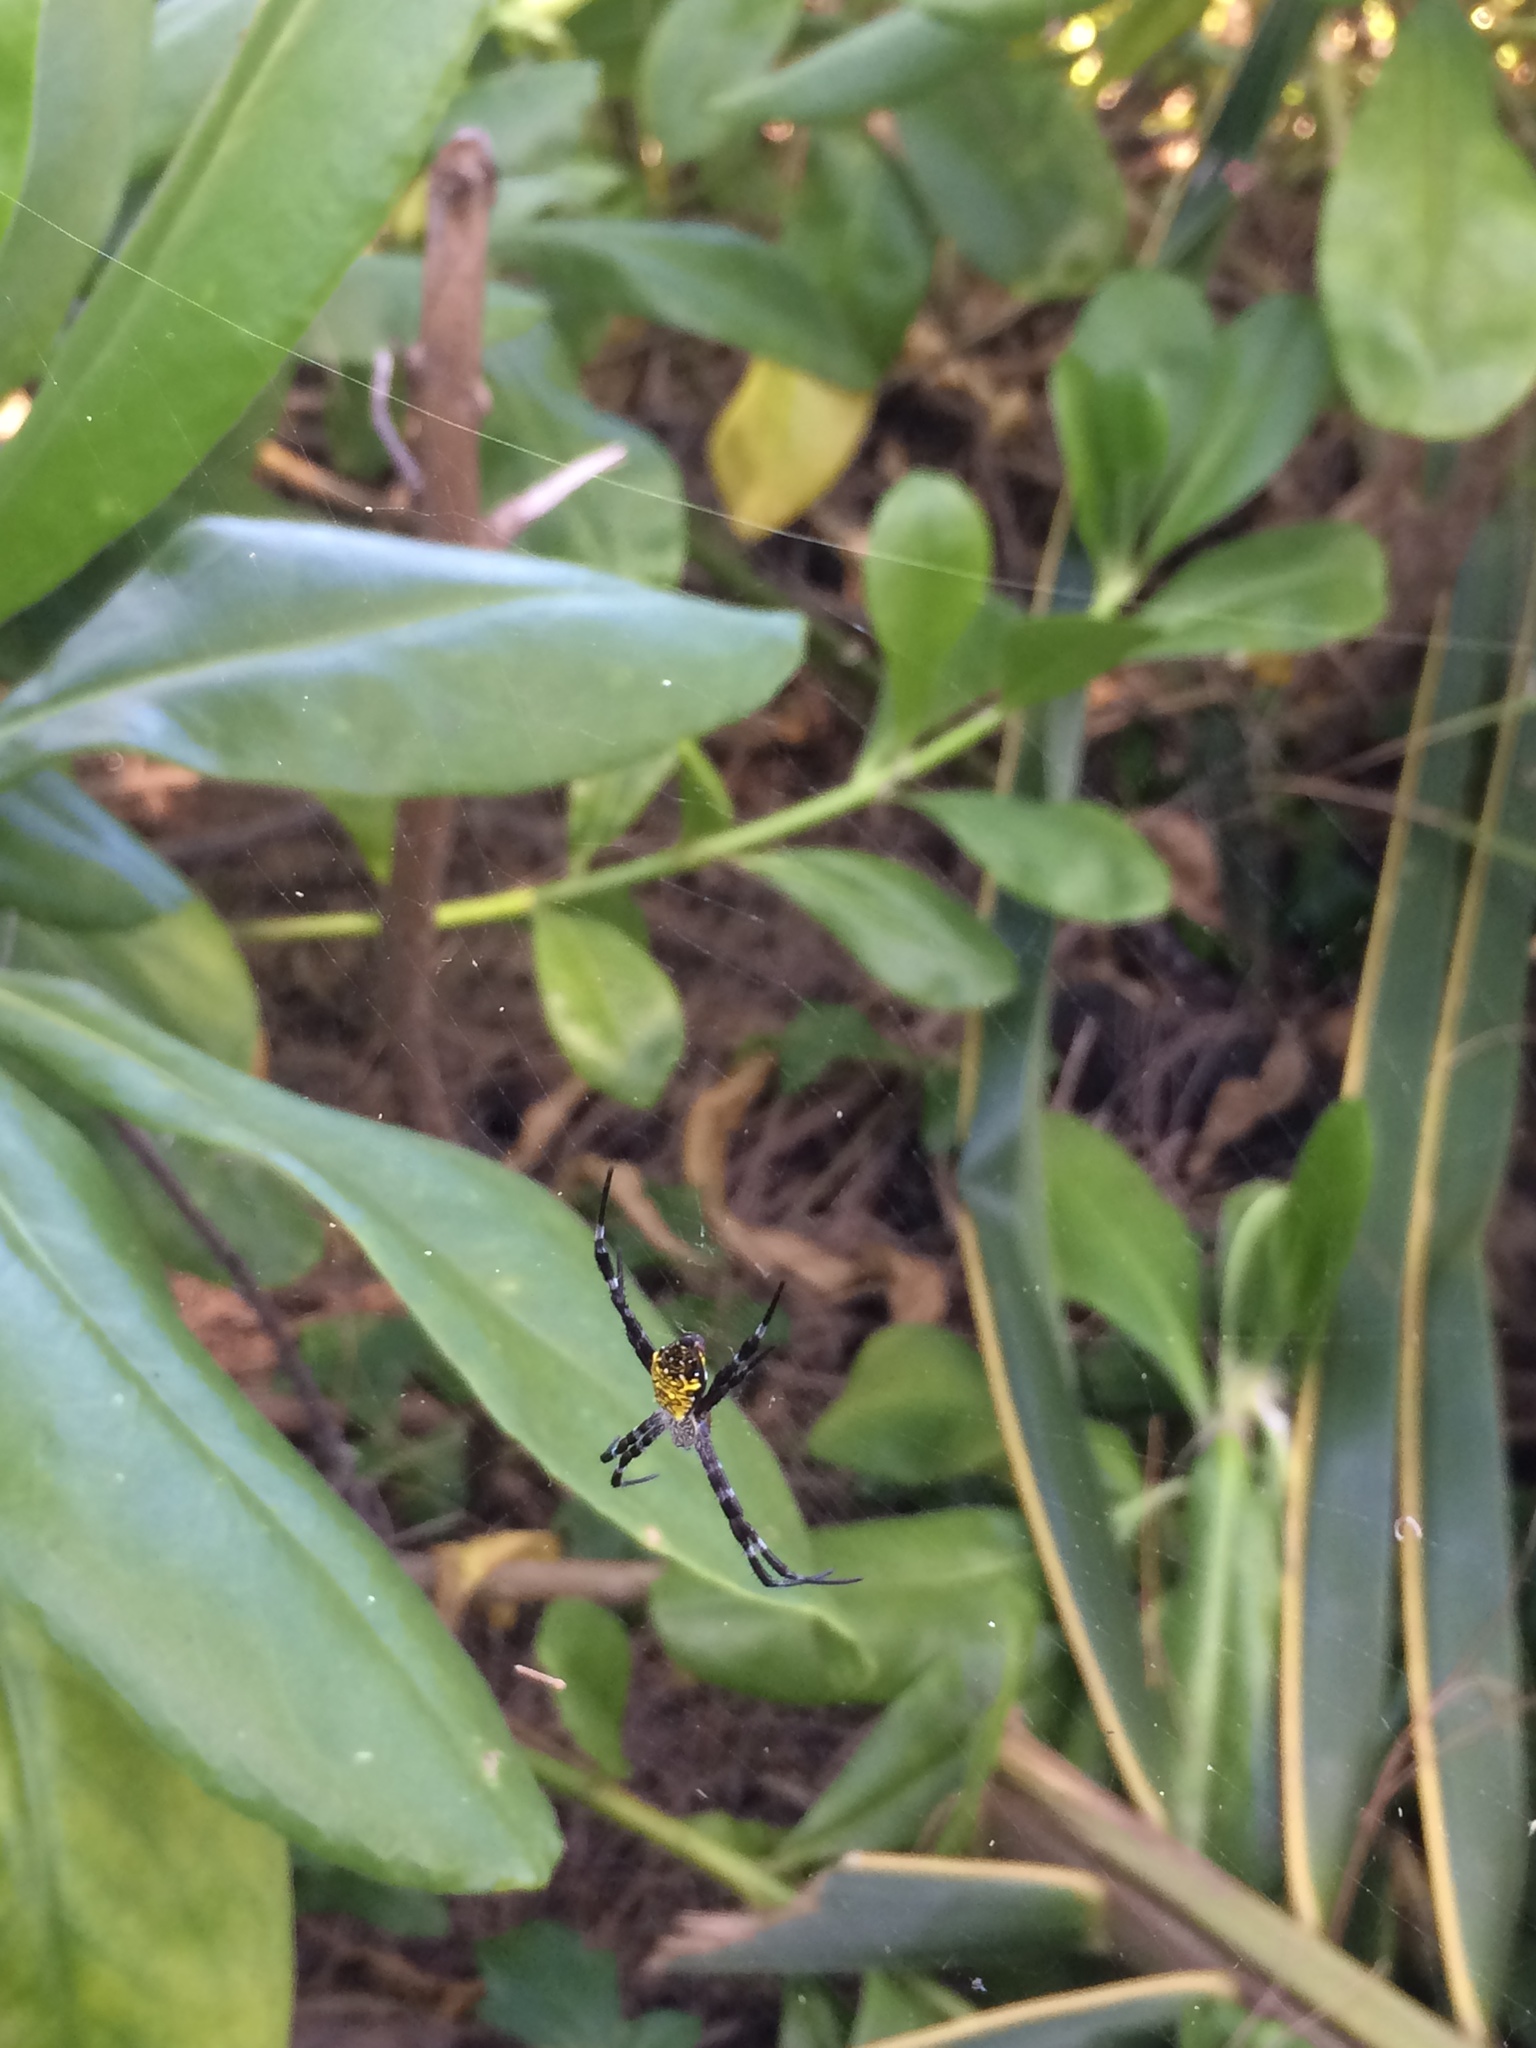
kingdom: Animalia
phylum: Arthropoda
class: Arachnida
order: Araneae
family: Araneidae
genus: Argiope
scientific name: Argiope appensa
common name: Garden spider
